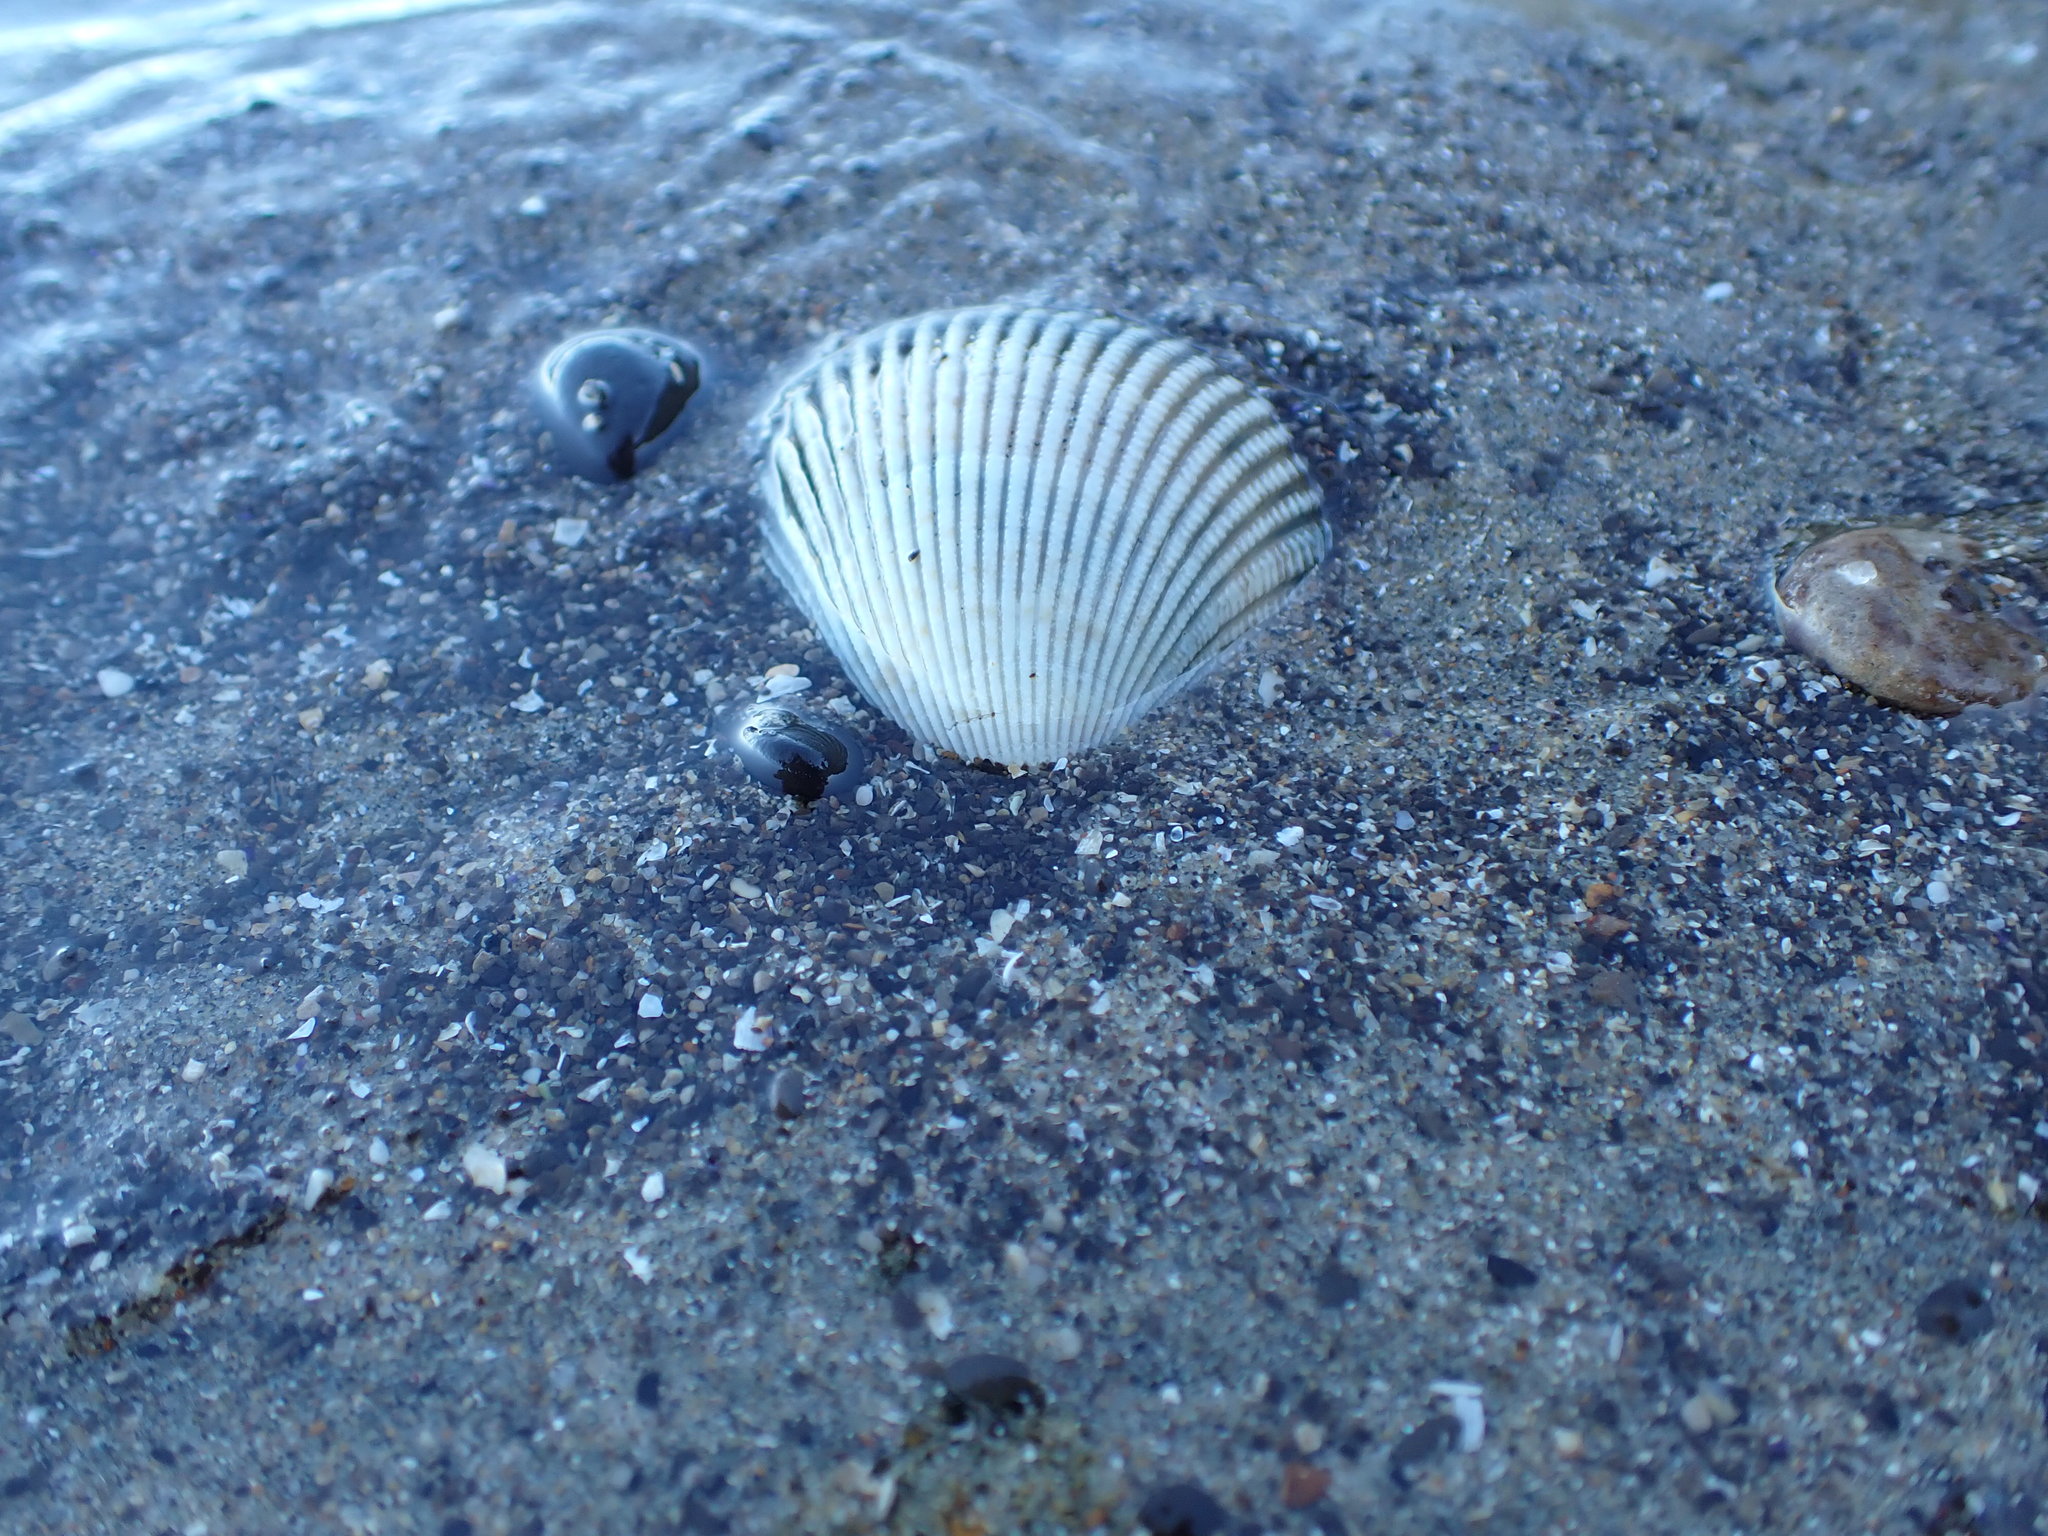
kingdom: Animalia
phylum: Mollusca
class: Bivalvia
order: Cardiida
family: Cardiidae
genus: Clinocardium
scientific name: Clinocardium nuttallii
